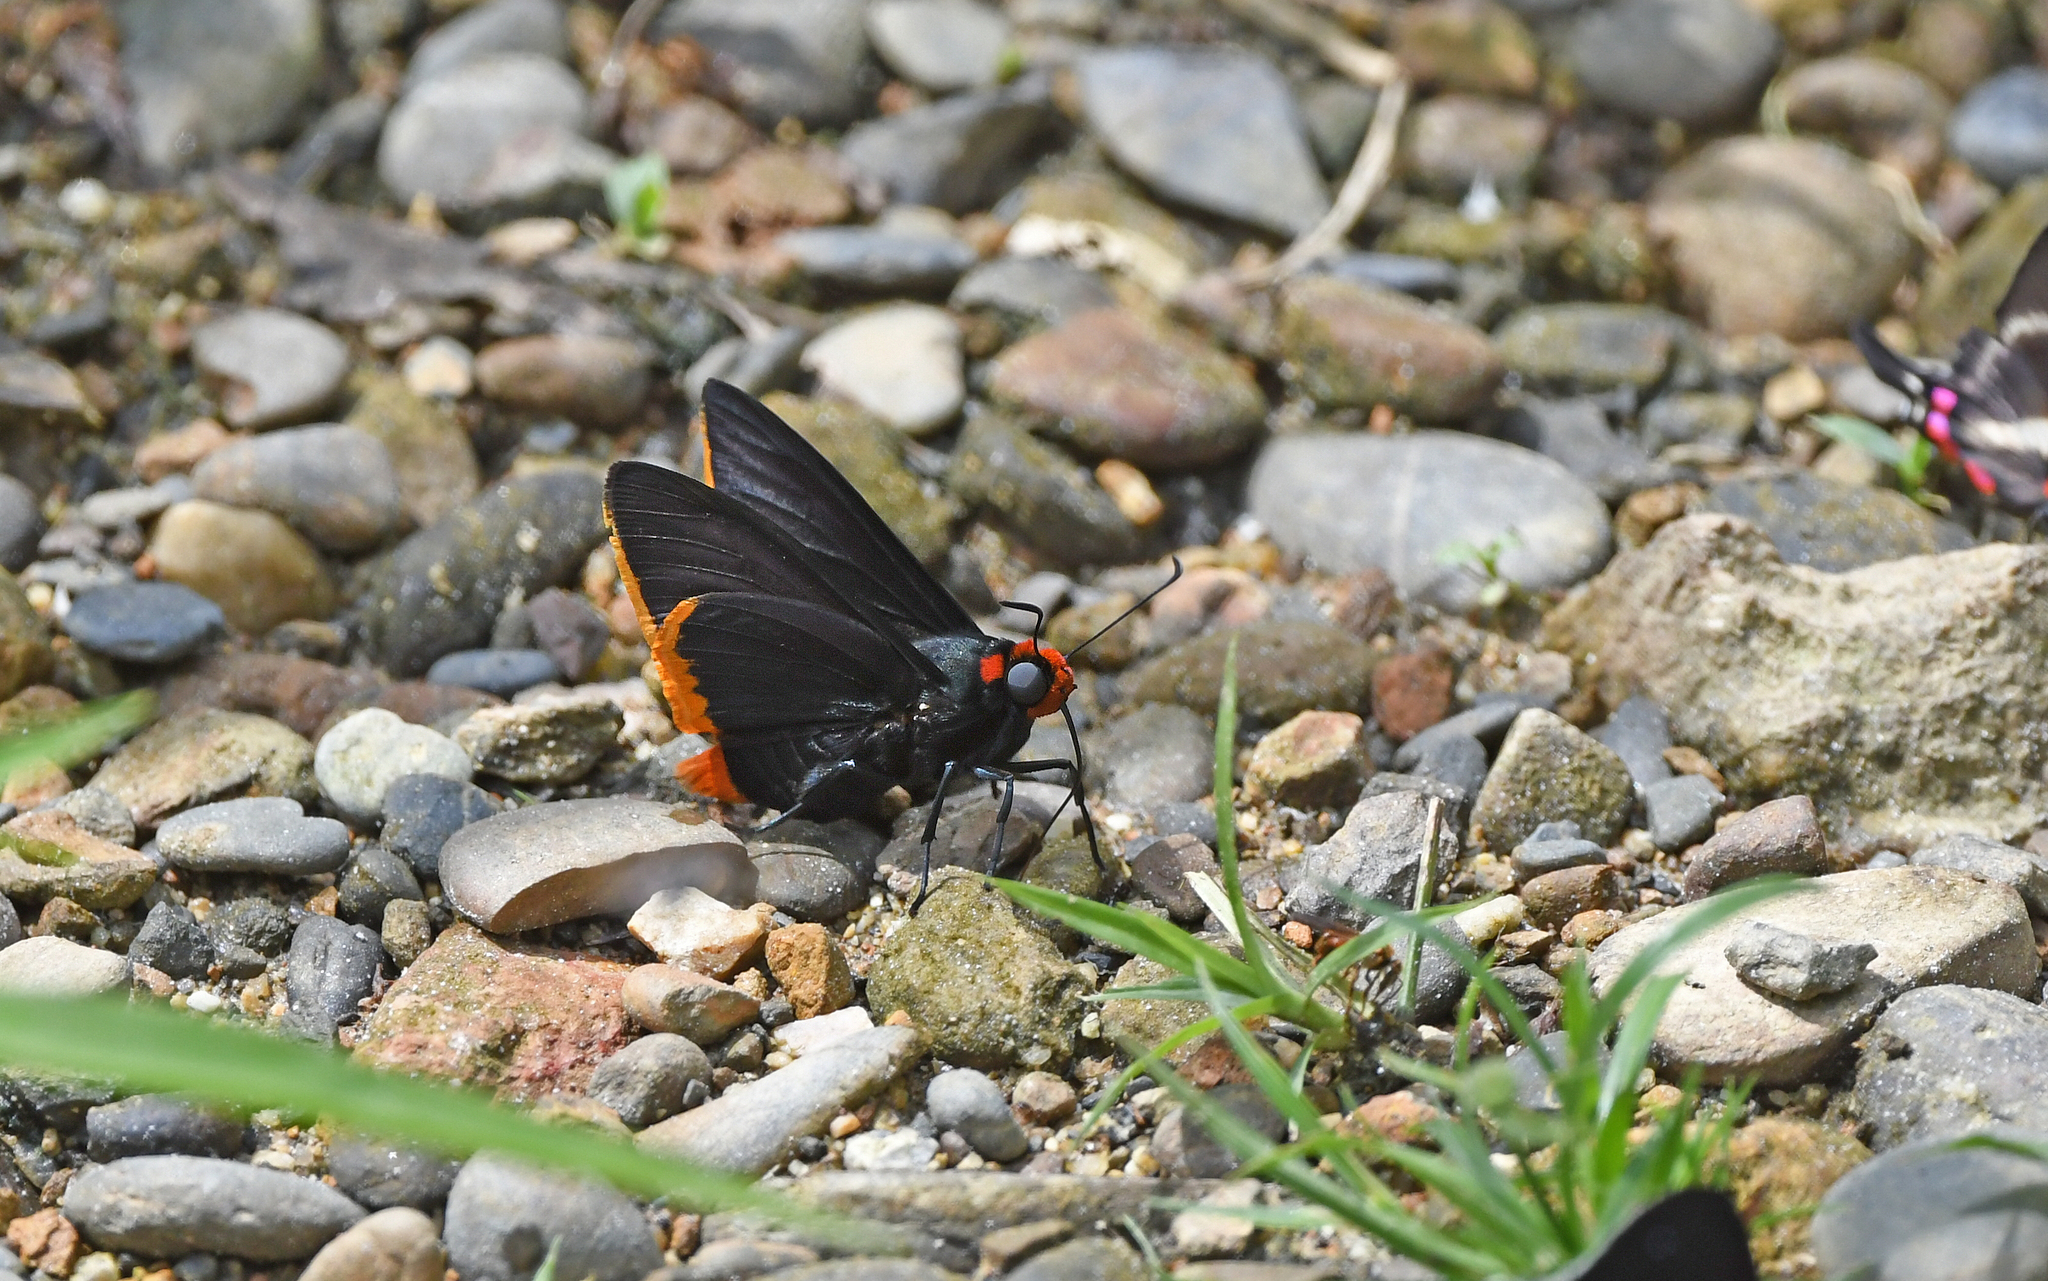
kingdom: Animalia
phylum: Arthropoda
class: Insecta
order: Lepidoptera
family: Hesperiidae
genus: Pyrrhopyge
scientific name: Pyrrhopyge arax
